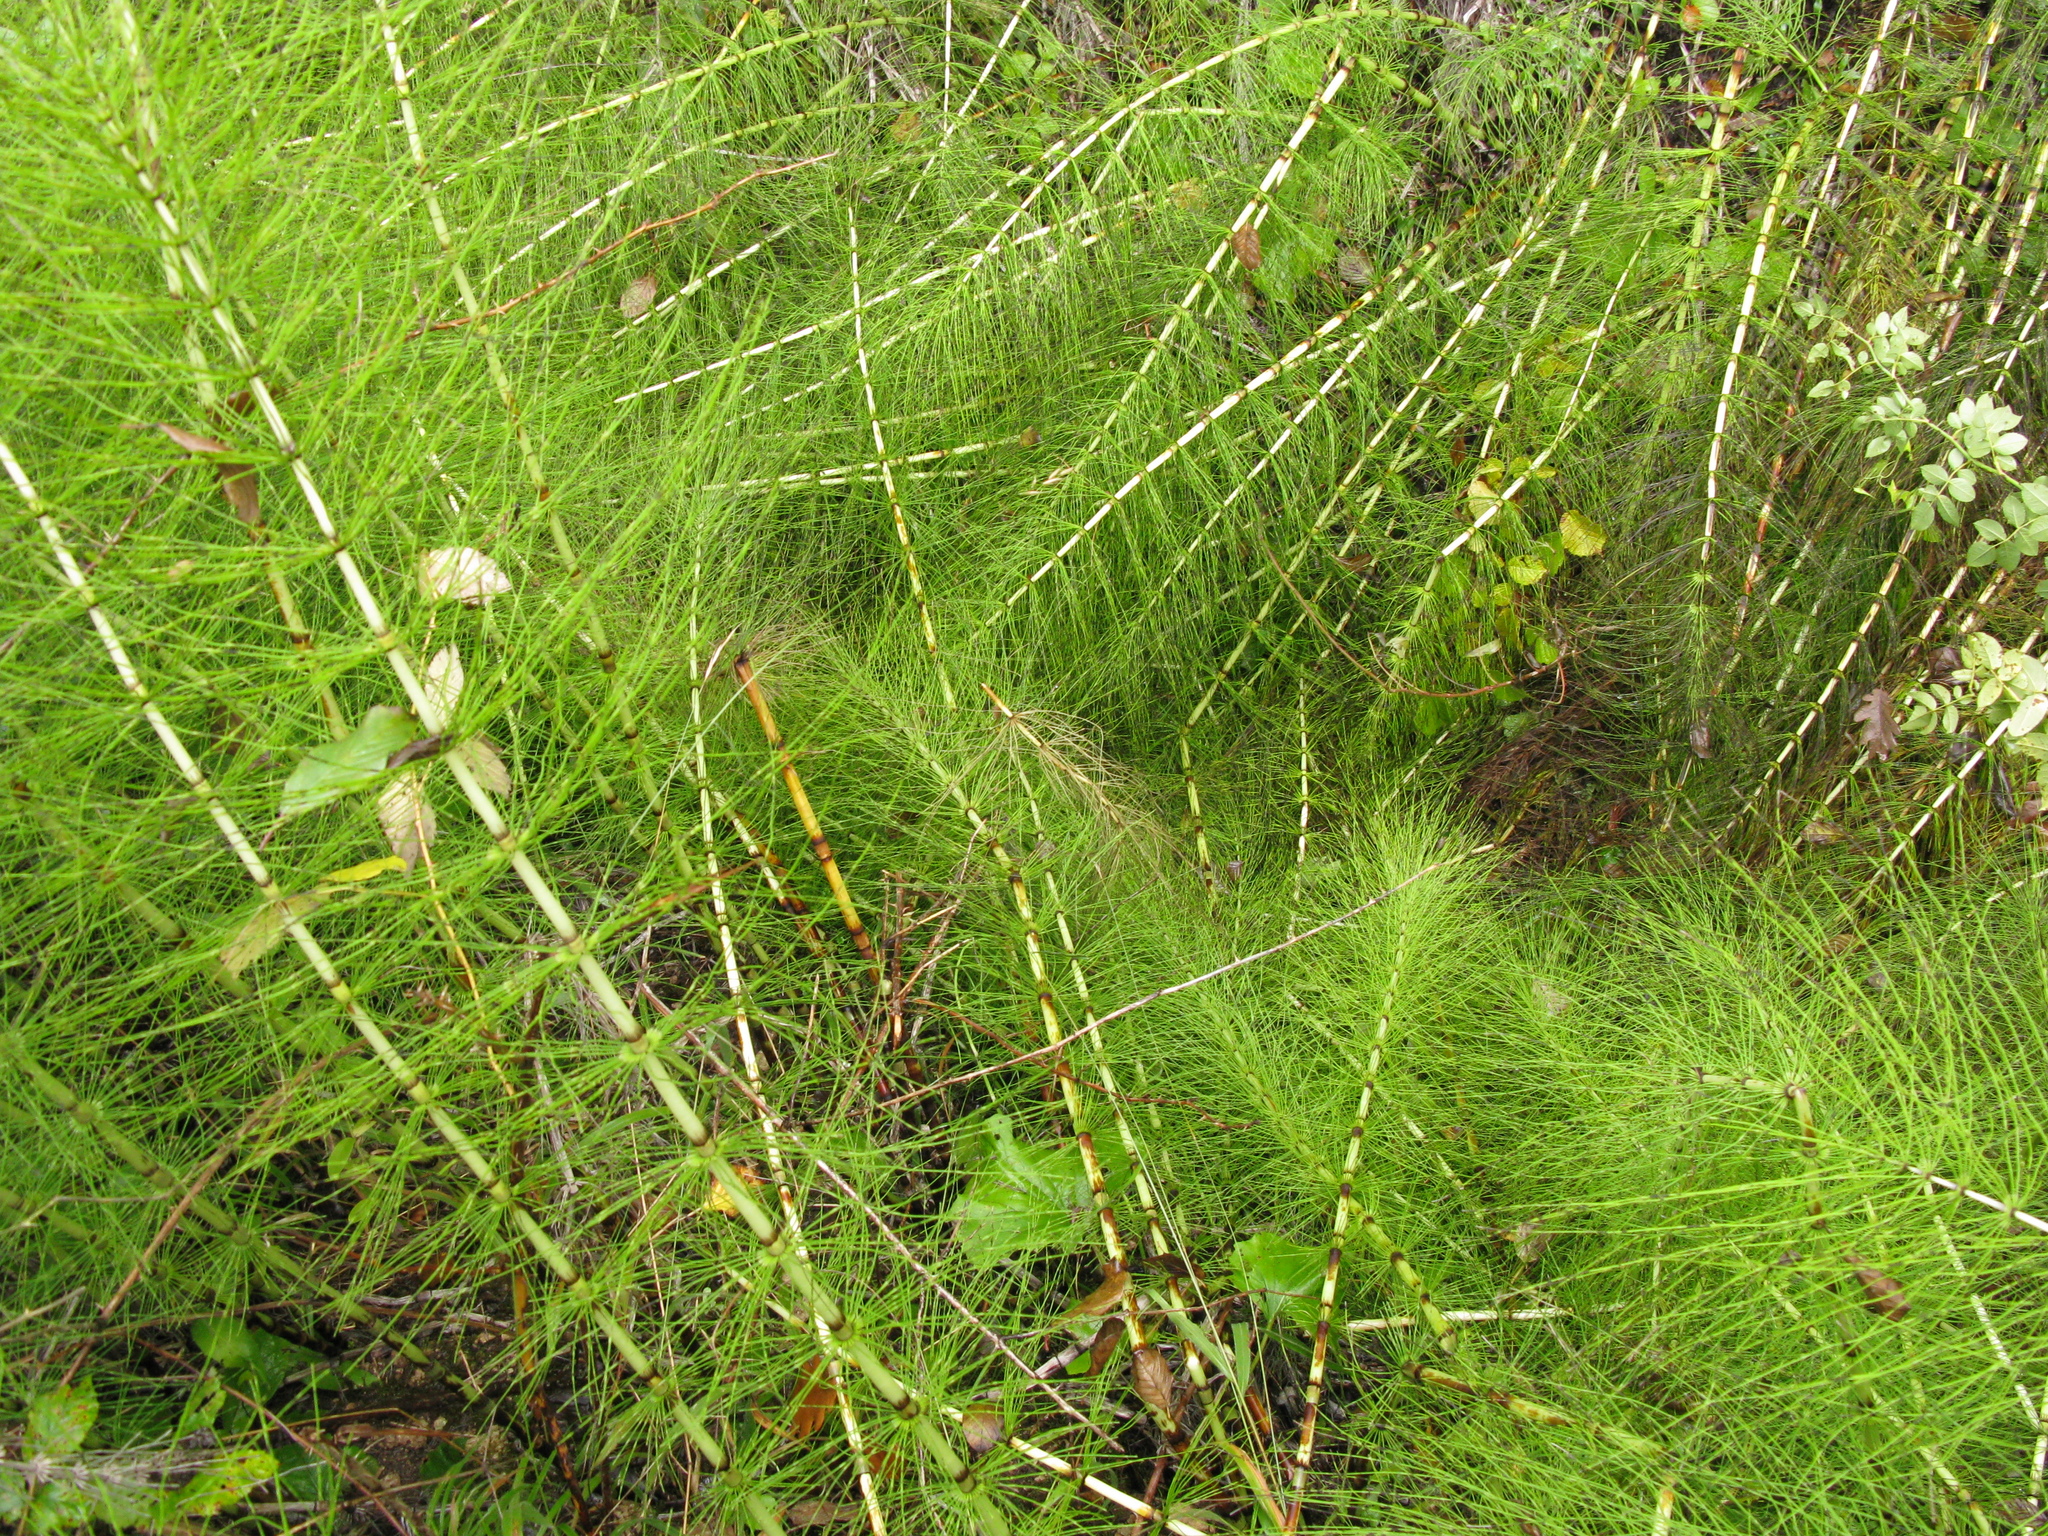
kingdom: Plantae
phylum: Tracheophyta
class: Polypodiopsida
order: Equisetales
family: Equisetaceae
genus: Equisetum
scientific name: Equisetum telmateia
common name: Great horsetail
